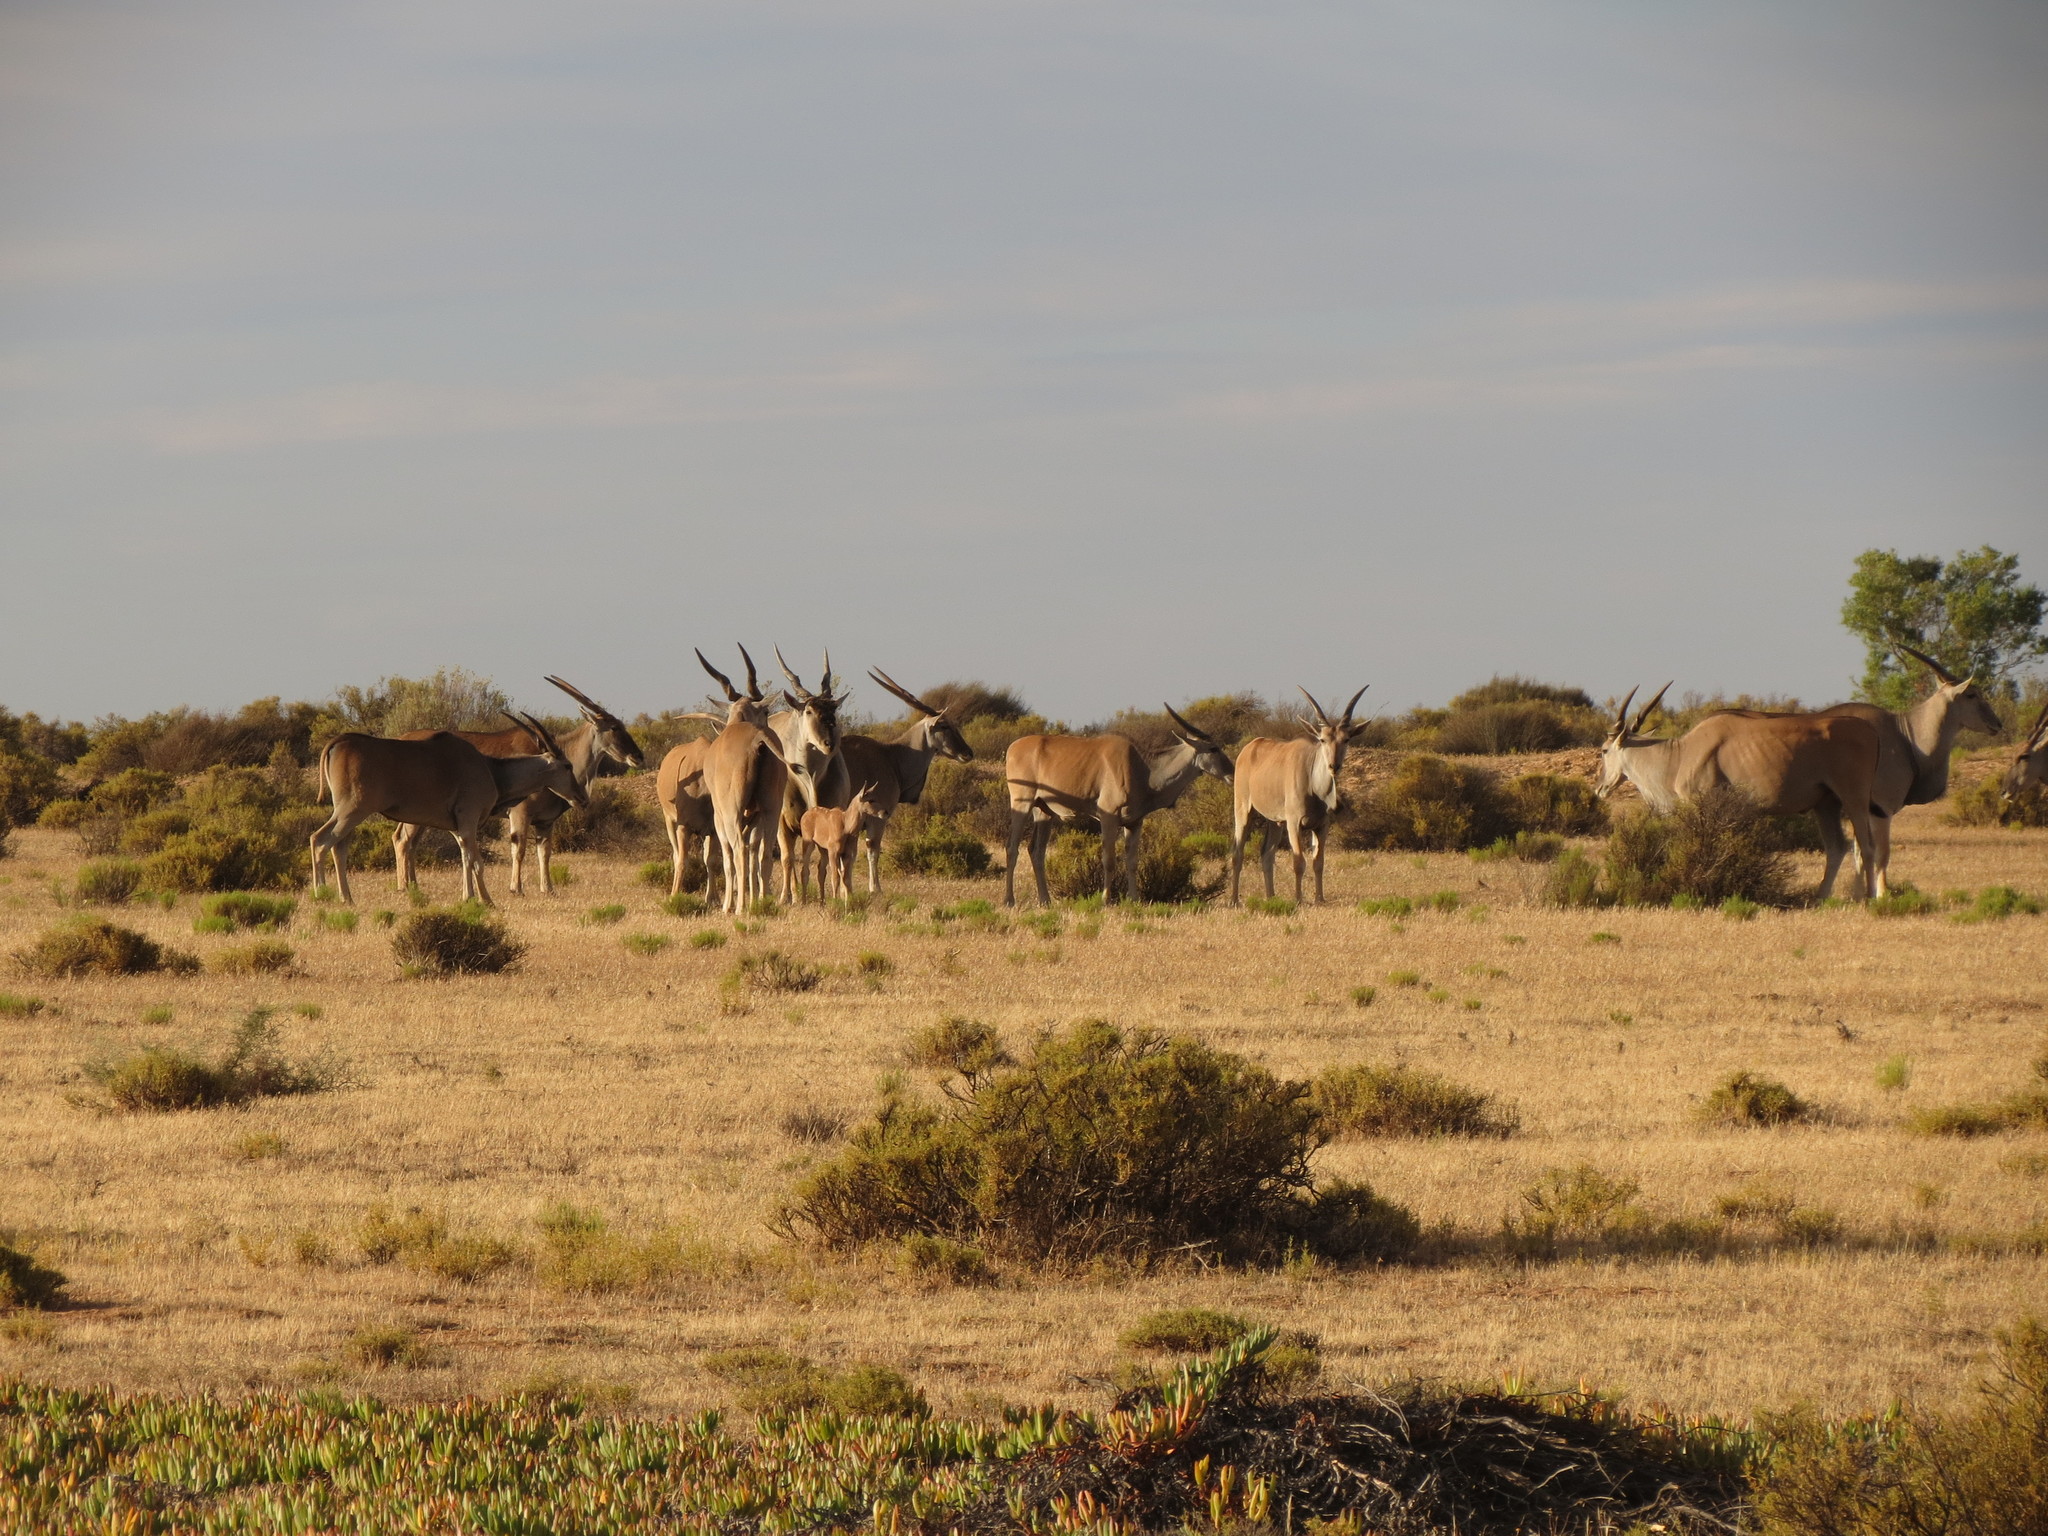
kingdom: Animalia
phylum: Chordata
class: Mammalia
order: Artiodactyla
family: Bovidae
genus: Taurotragus
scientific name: Taurotragus oryx
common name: Common eland
